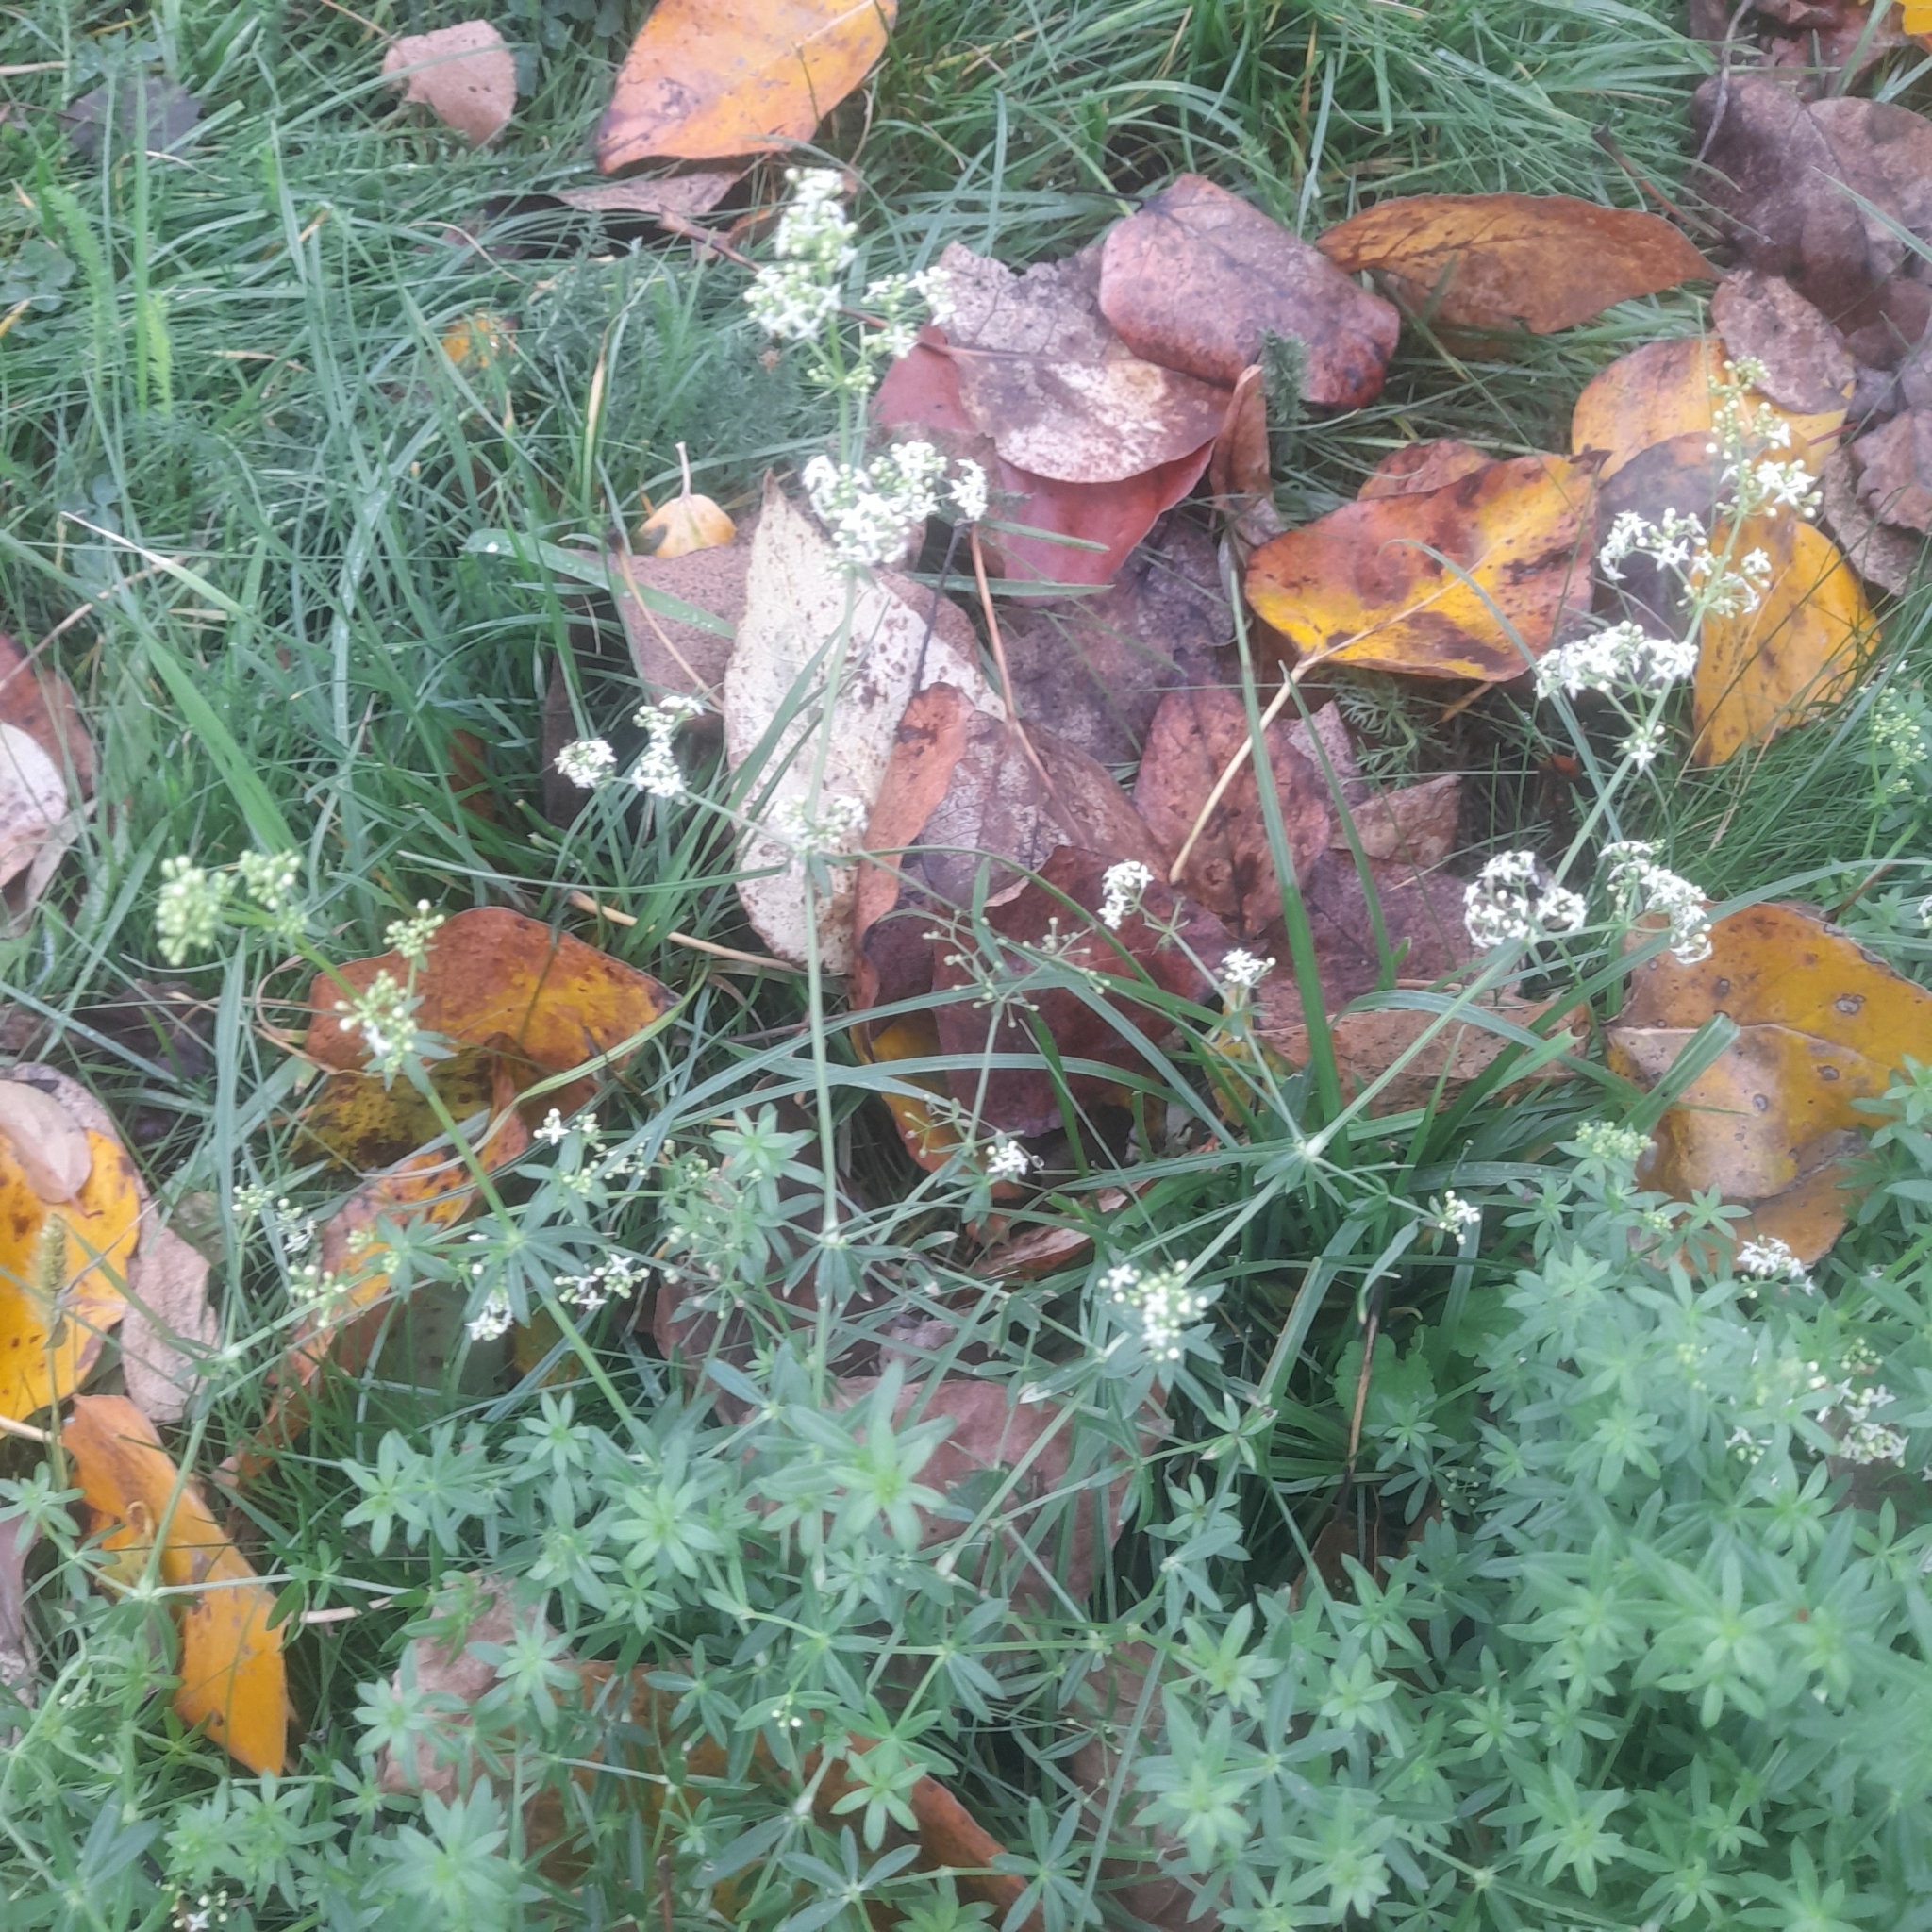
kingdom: Plantae
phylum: Tracheophyta
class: Magnoliopsida
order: Gentianales
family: Rubiaceae
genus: Galium
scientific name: Galium mollugo
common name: Hedge bedstraw
